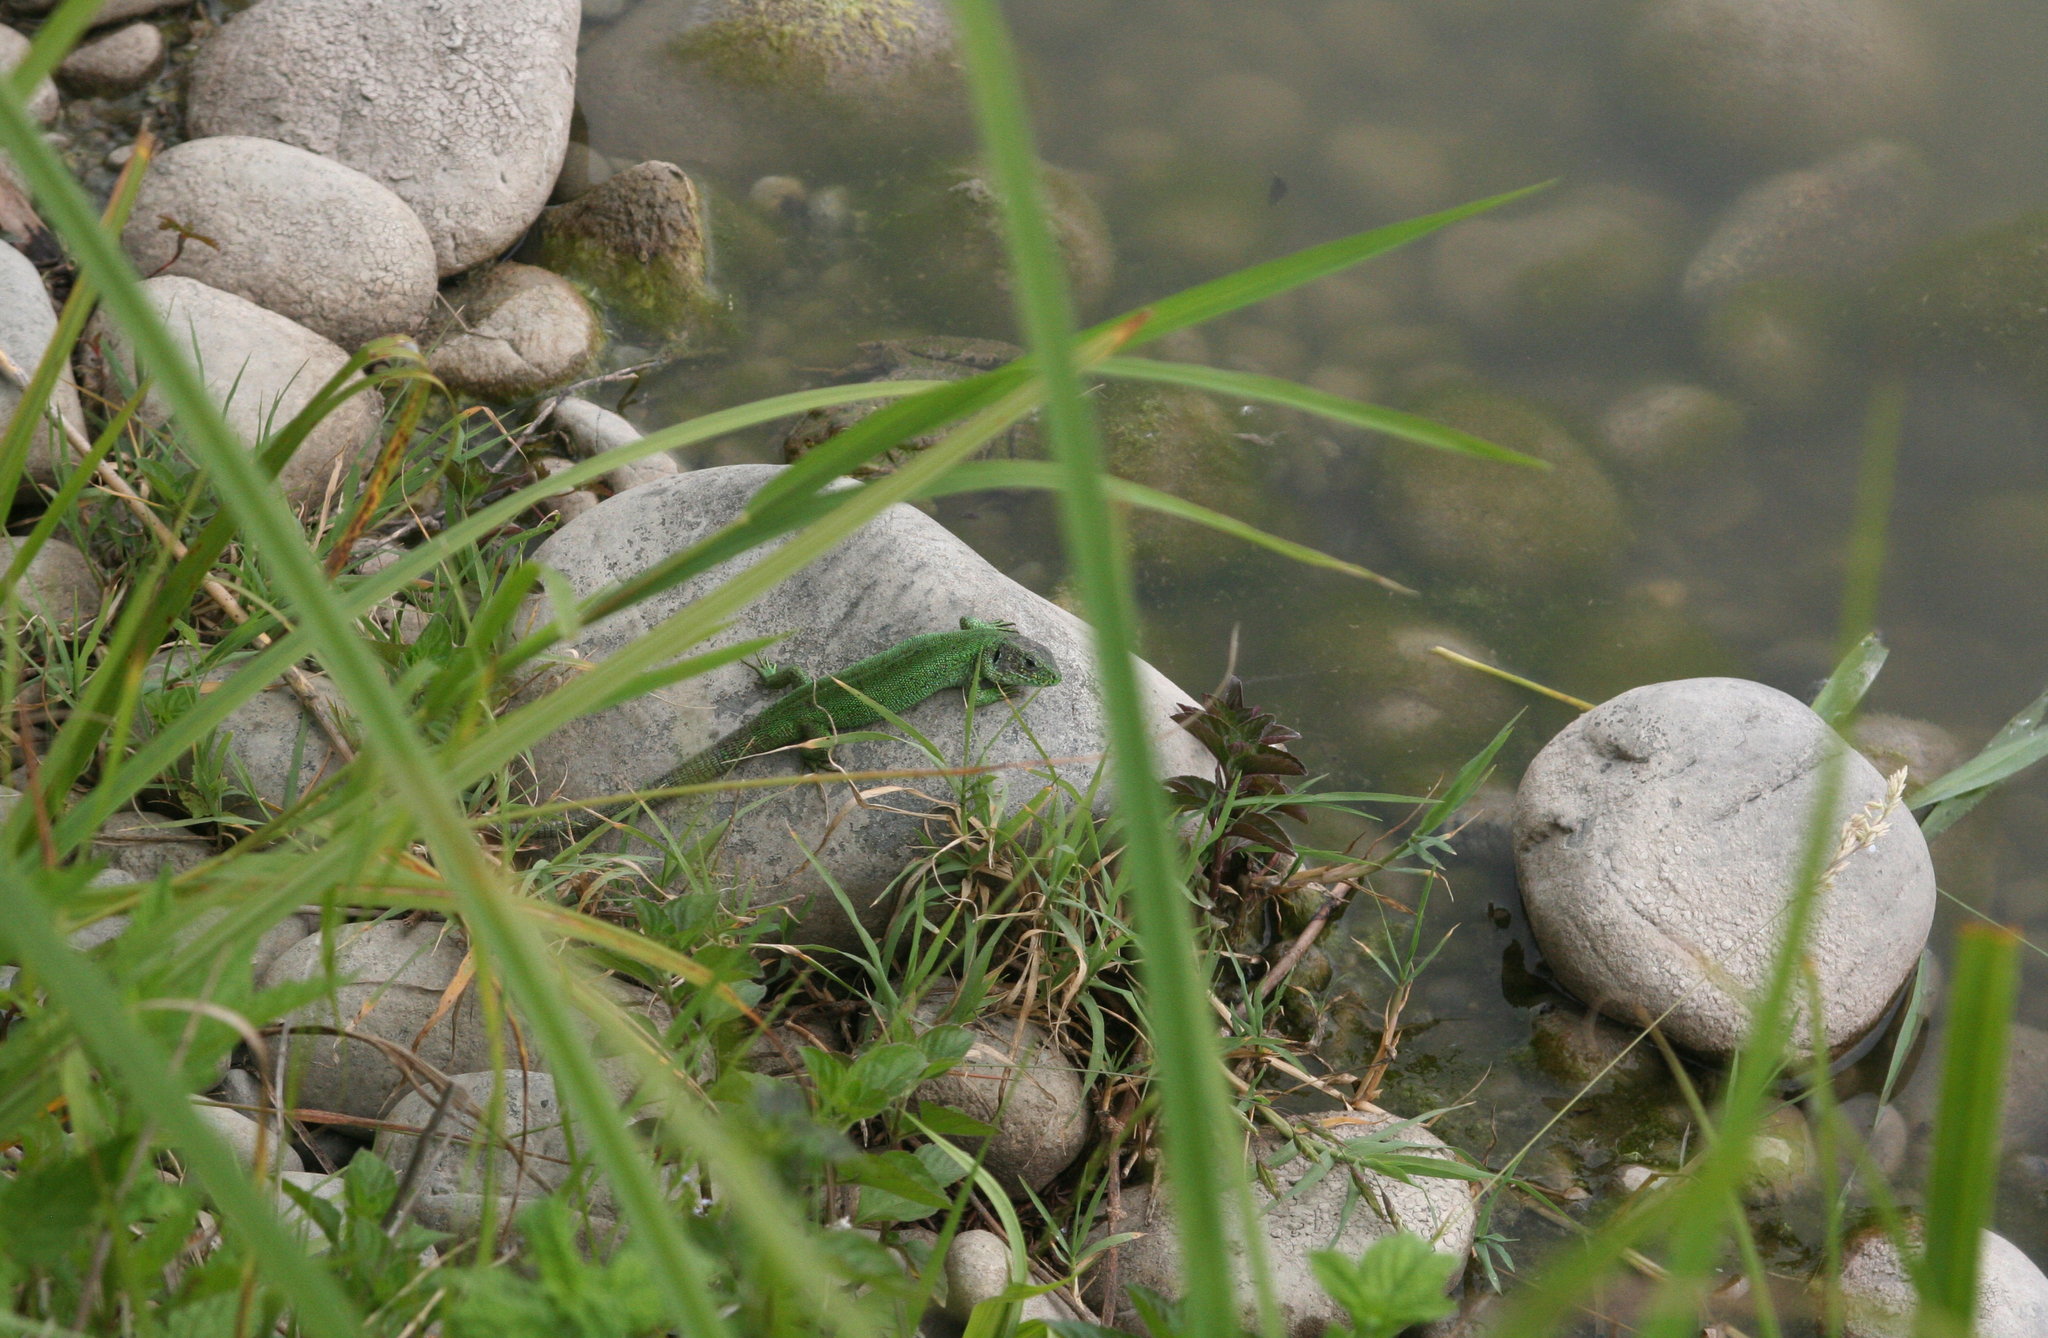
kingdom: Animalia
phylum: Chordata
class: Squamata
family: Lacertidae
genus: Lacerta
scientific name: Lacerta agilis
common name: Sand lizard
